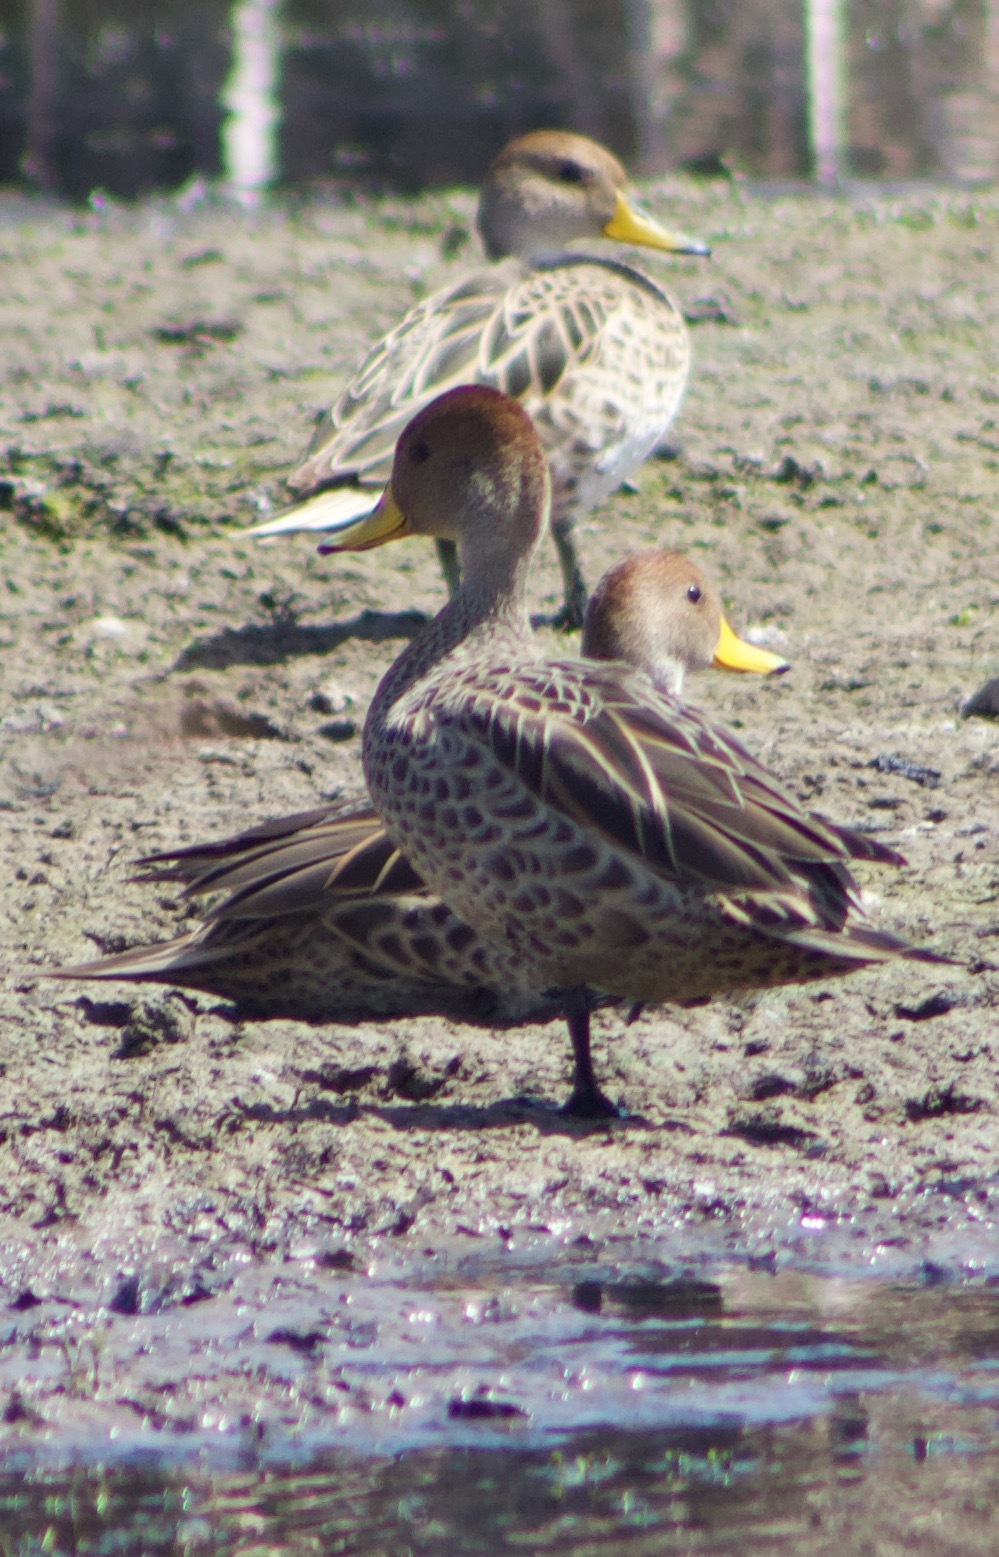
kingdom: Animalia
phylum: Chordata
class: Aves
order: Anseriformes
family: Anatidae
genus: Anas
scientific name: Anas georgica
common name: Yellow-billed pintail
